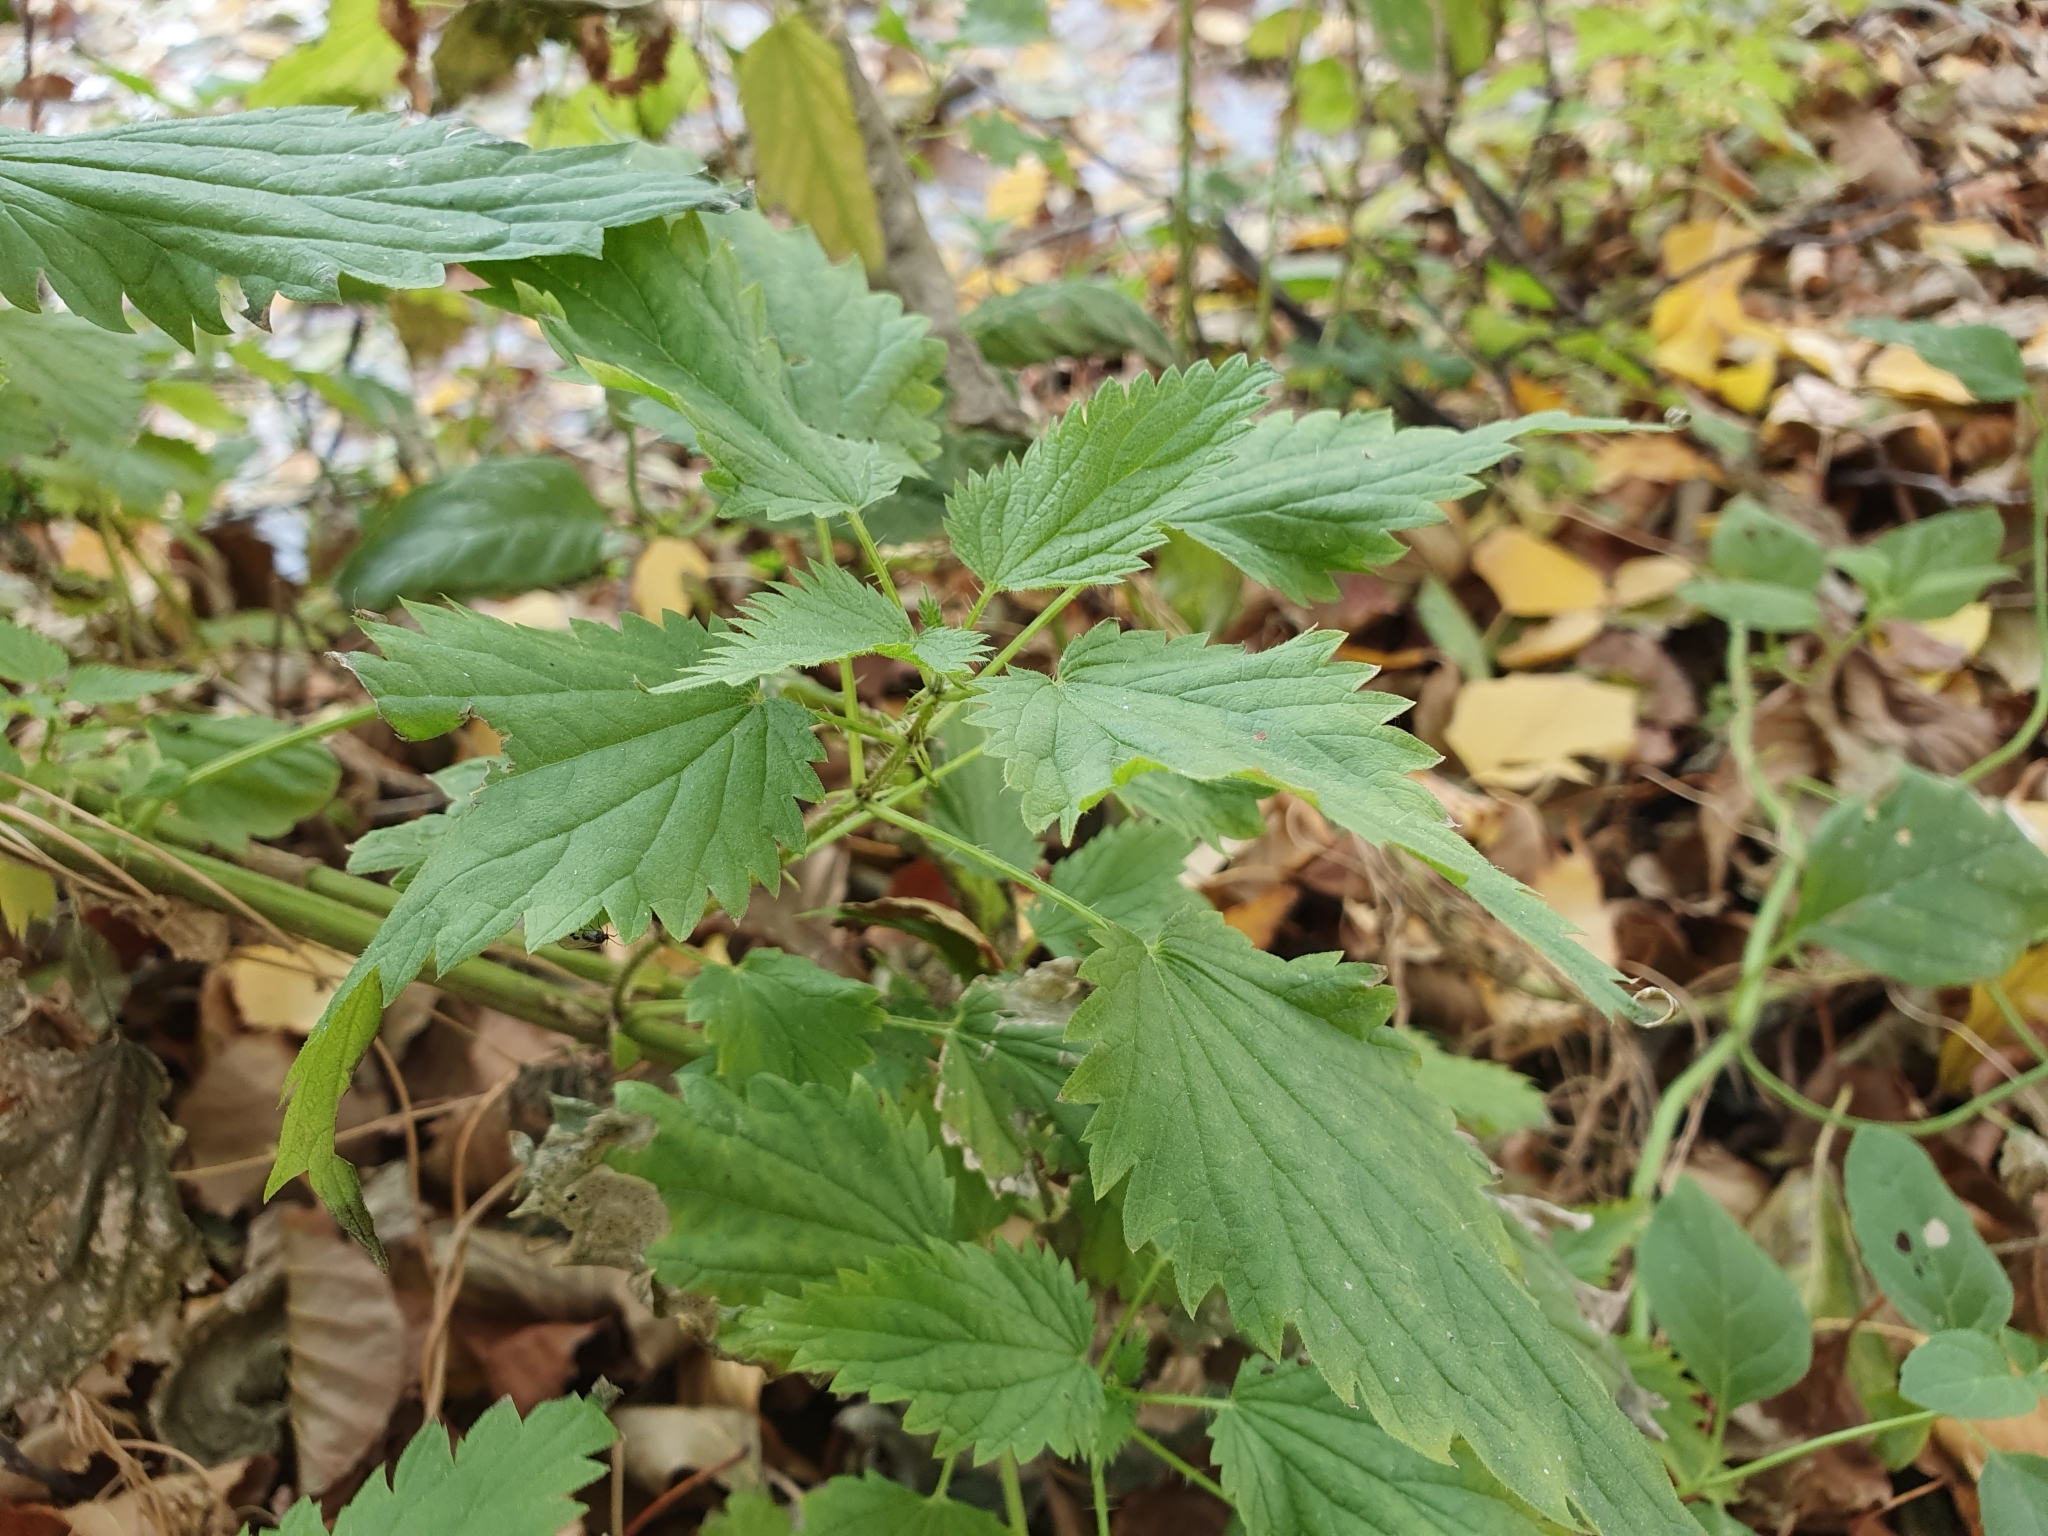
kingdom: Plantae
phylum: Tracheophyta
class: Magnoliopsida
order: Rosales
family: Urticaceae
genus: Urtica
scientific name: Urtica dioica
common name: Common nettle
